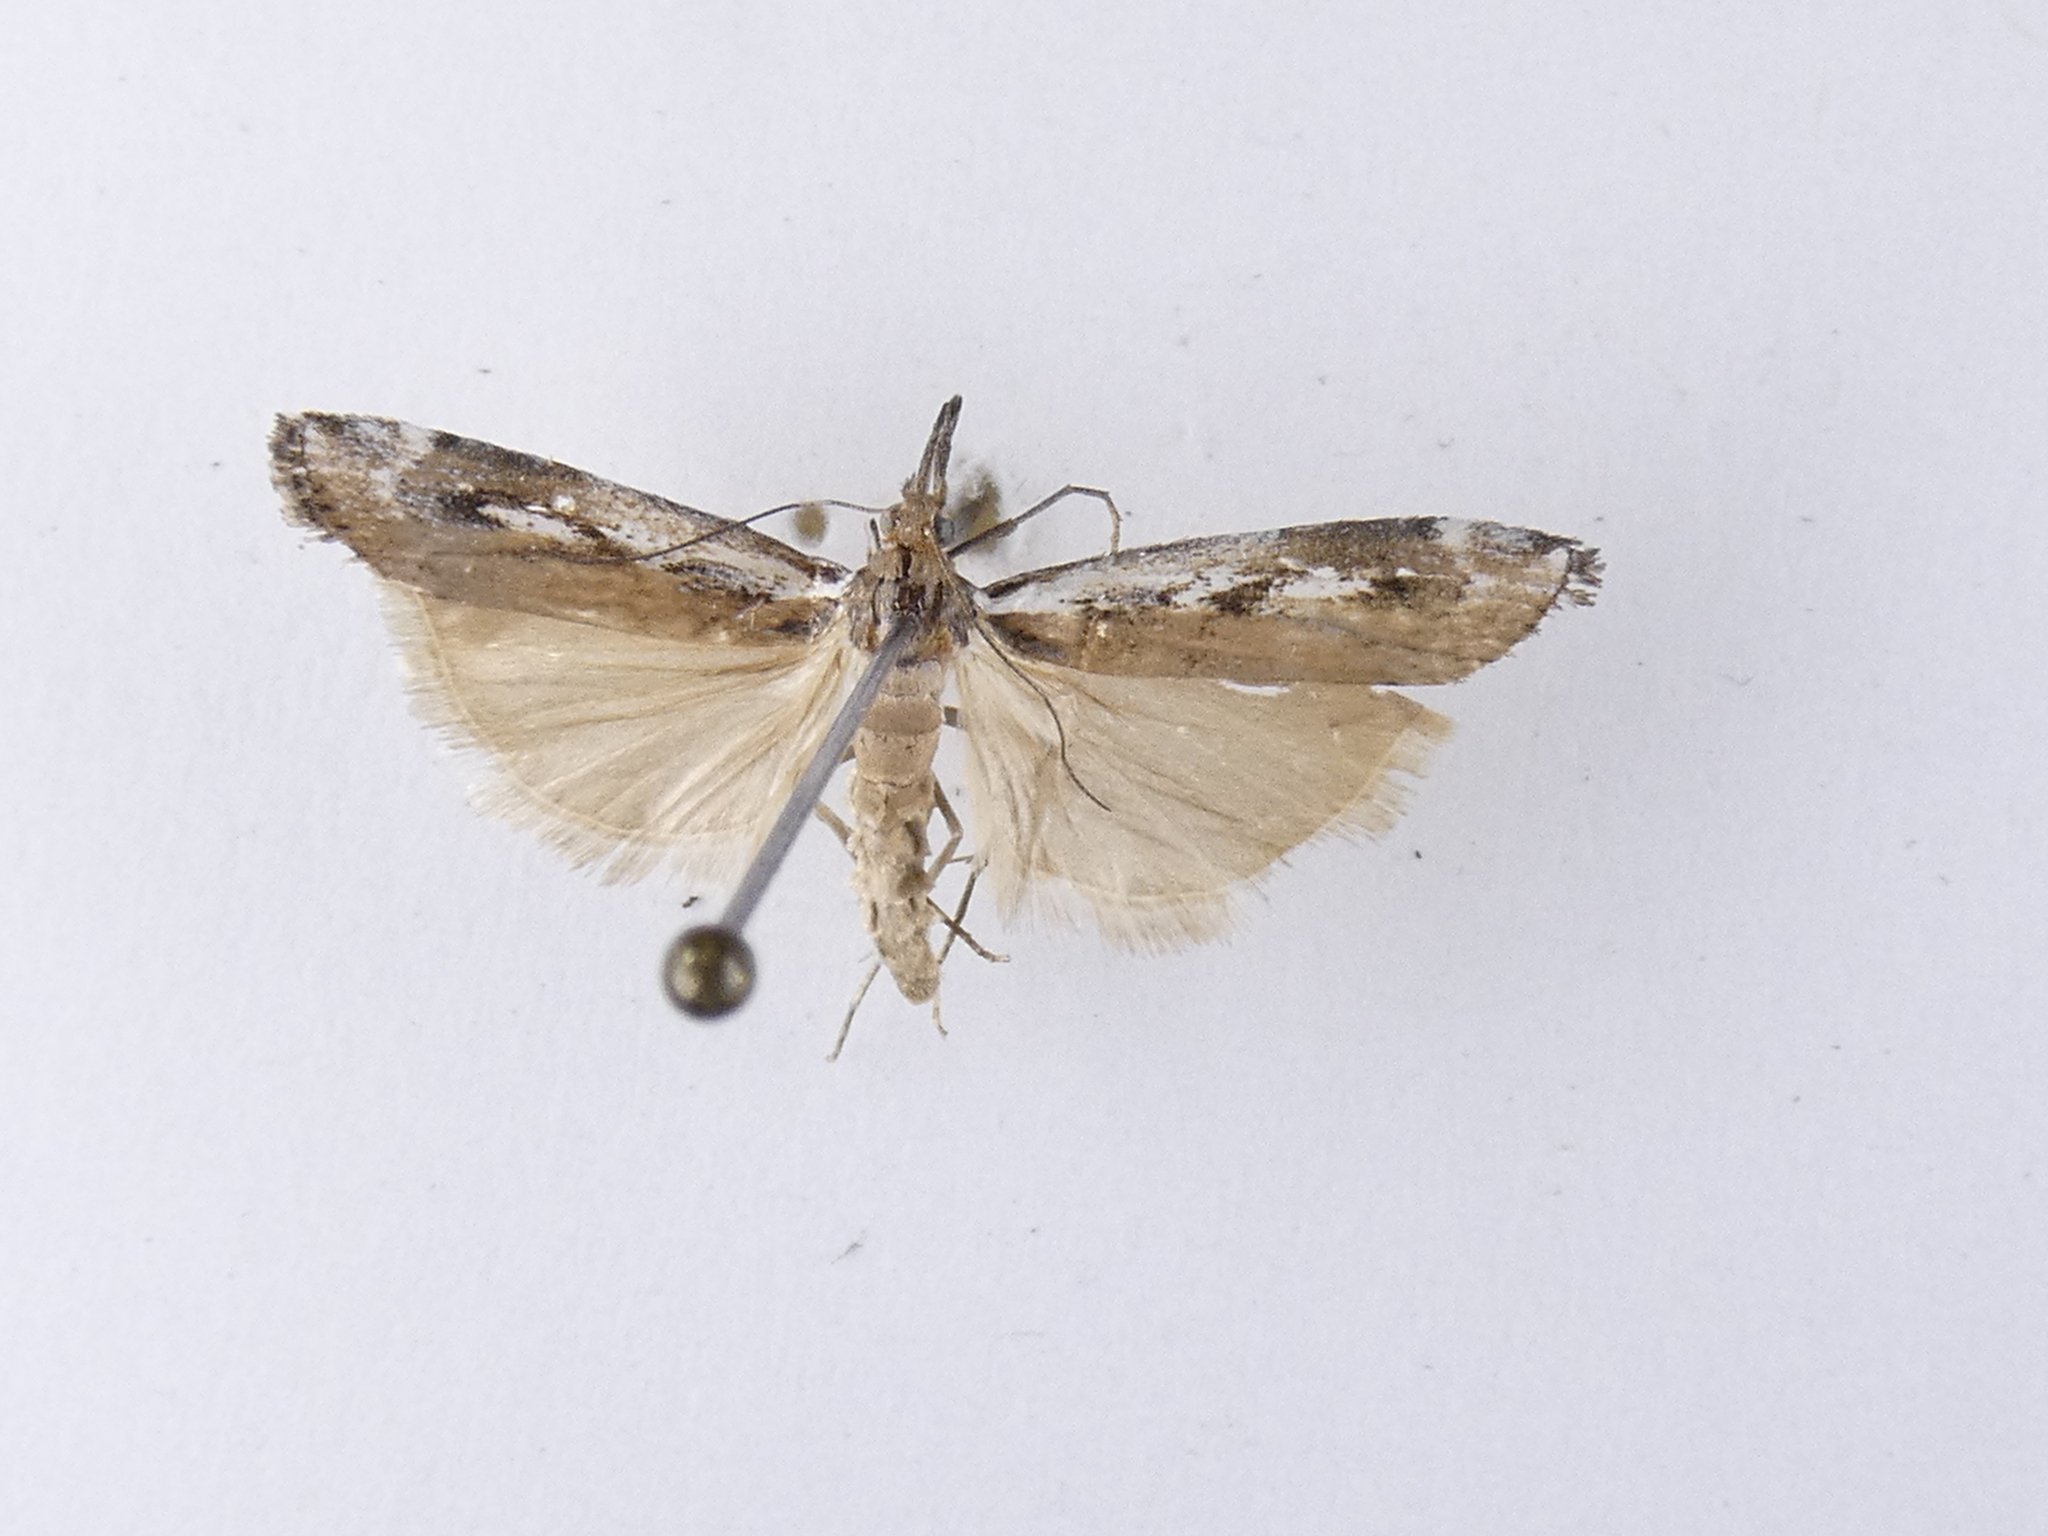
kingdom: Animalia
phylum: Arthropoda
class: Insecta
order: Lepidoptera
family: Crambidae
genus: Orocrambus
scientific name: Orocrambus vulgaris
